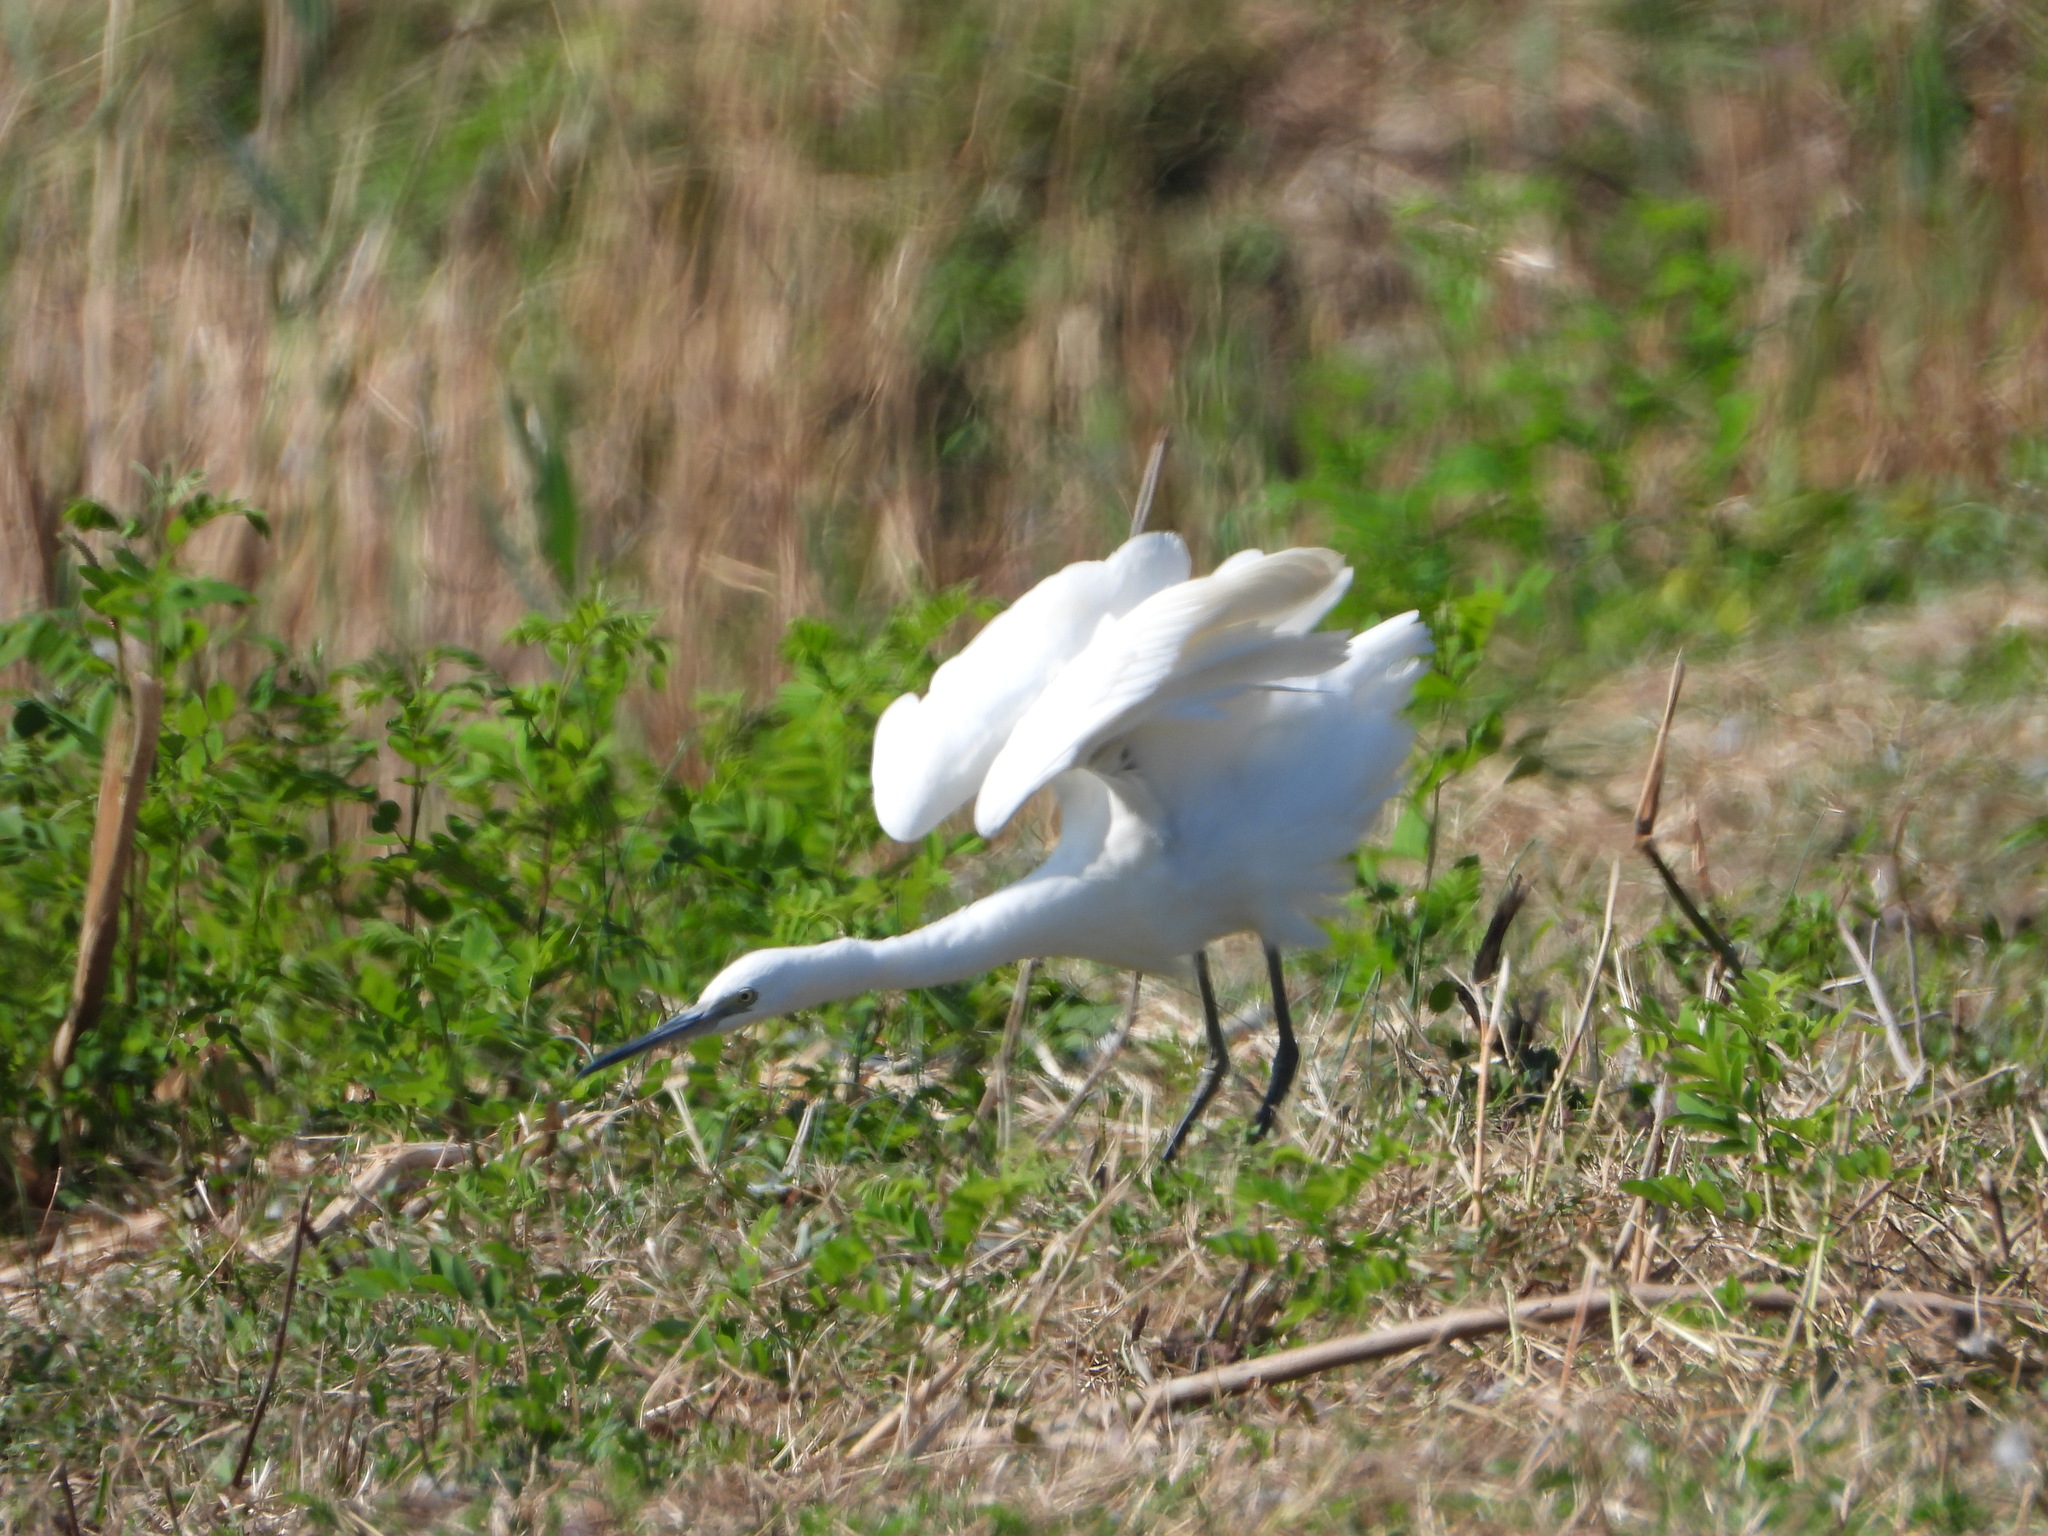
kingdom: Animalia
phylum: Chordata
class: Aves
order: Pelecaniformes
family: Ardeidae
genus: Egretta
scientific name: Egretta garzetta
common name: Little egret
